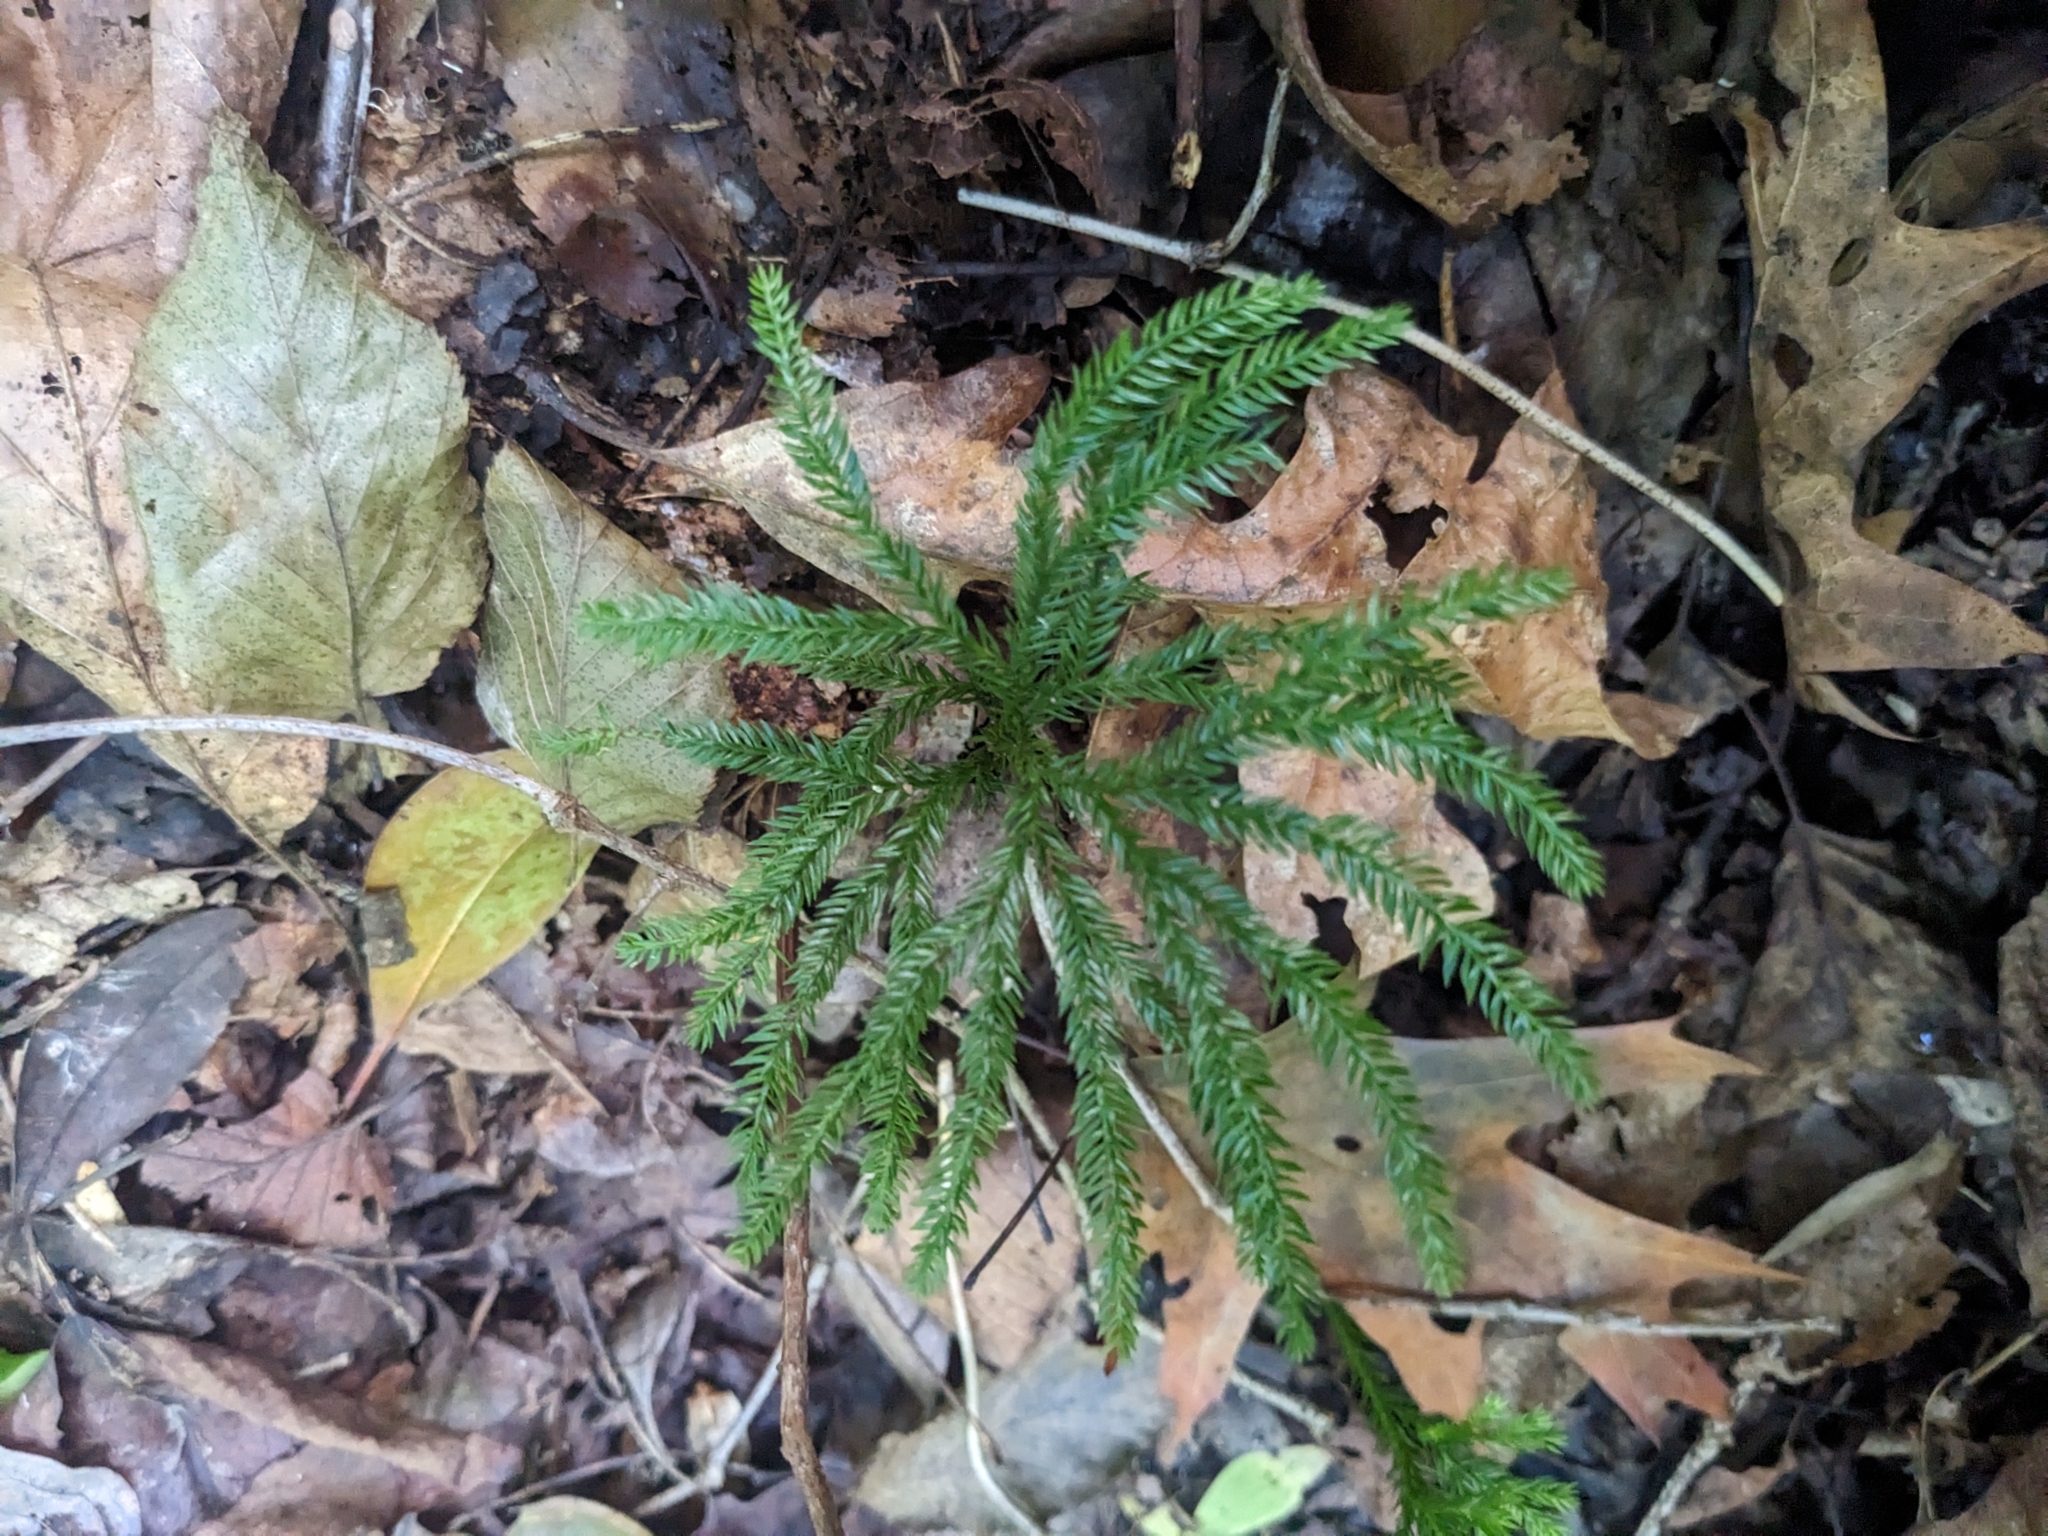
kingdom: Plantae
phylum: Tracheophyta
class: Lycopodiopsida
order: Lycopodiales
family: Lycopodiaceae
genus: Dendrolycopodium
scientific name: Dendrolycopodium obscurum
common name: Common ground-pine
